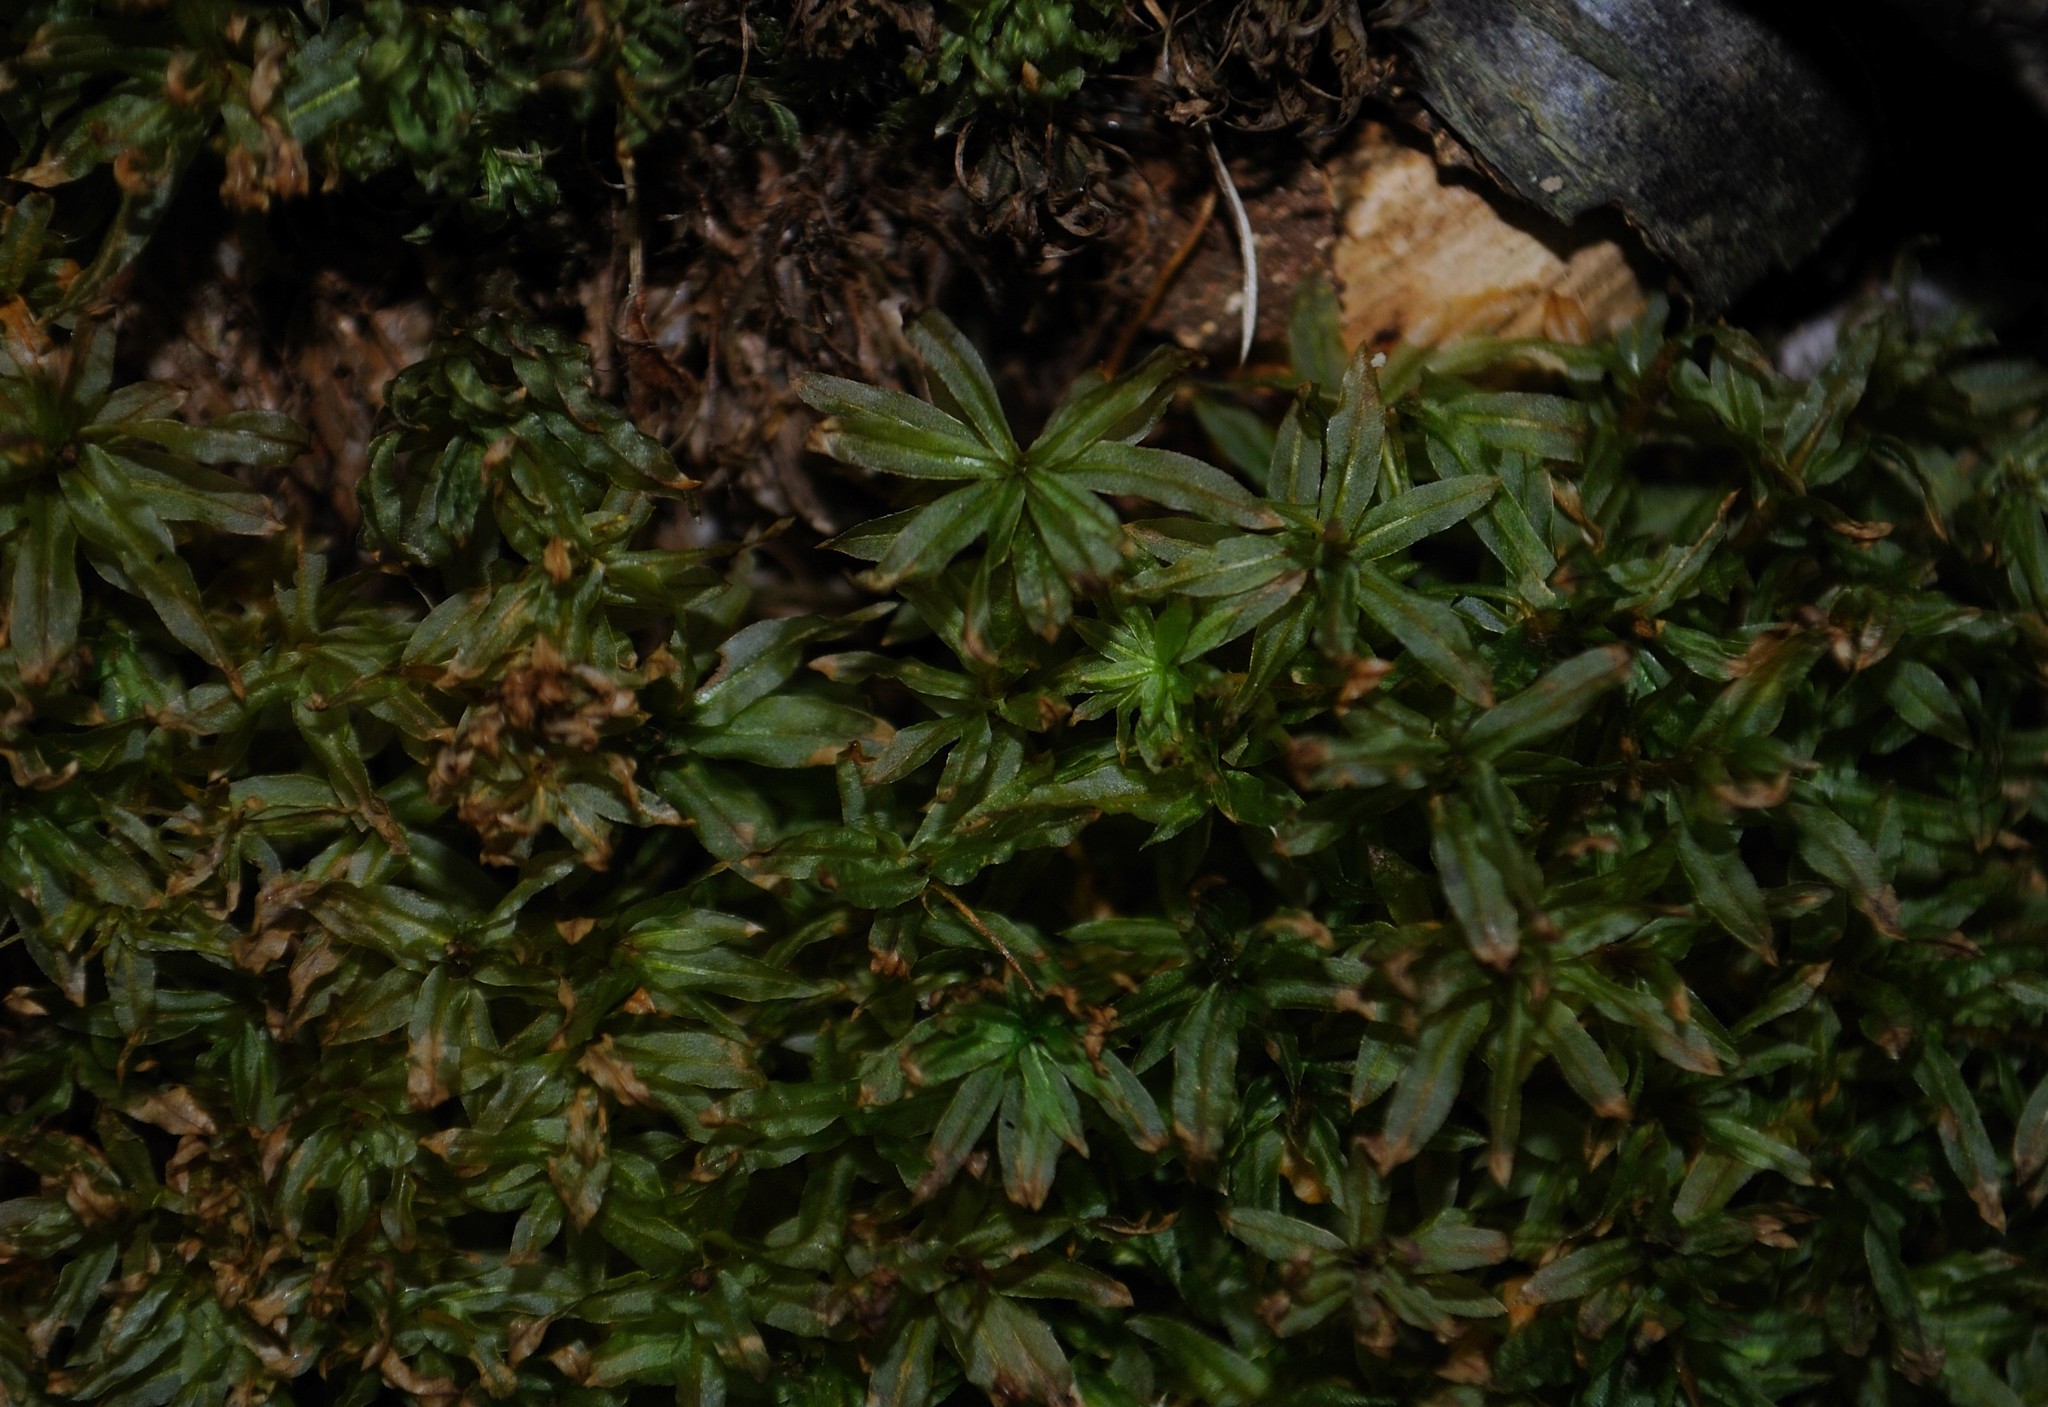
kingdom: Plantae
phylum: Bryophyta
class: Polytrichopsida
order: Polytrichales
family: Polytrichaceae
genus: Atrichum
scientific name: Atrichum crispum
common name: Fountain smoothcap
